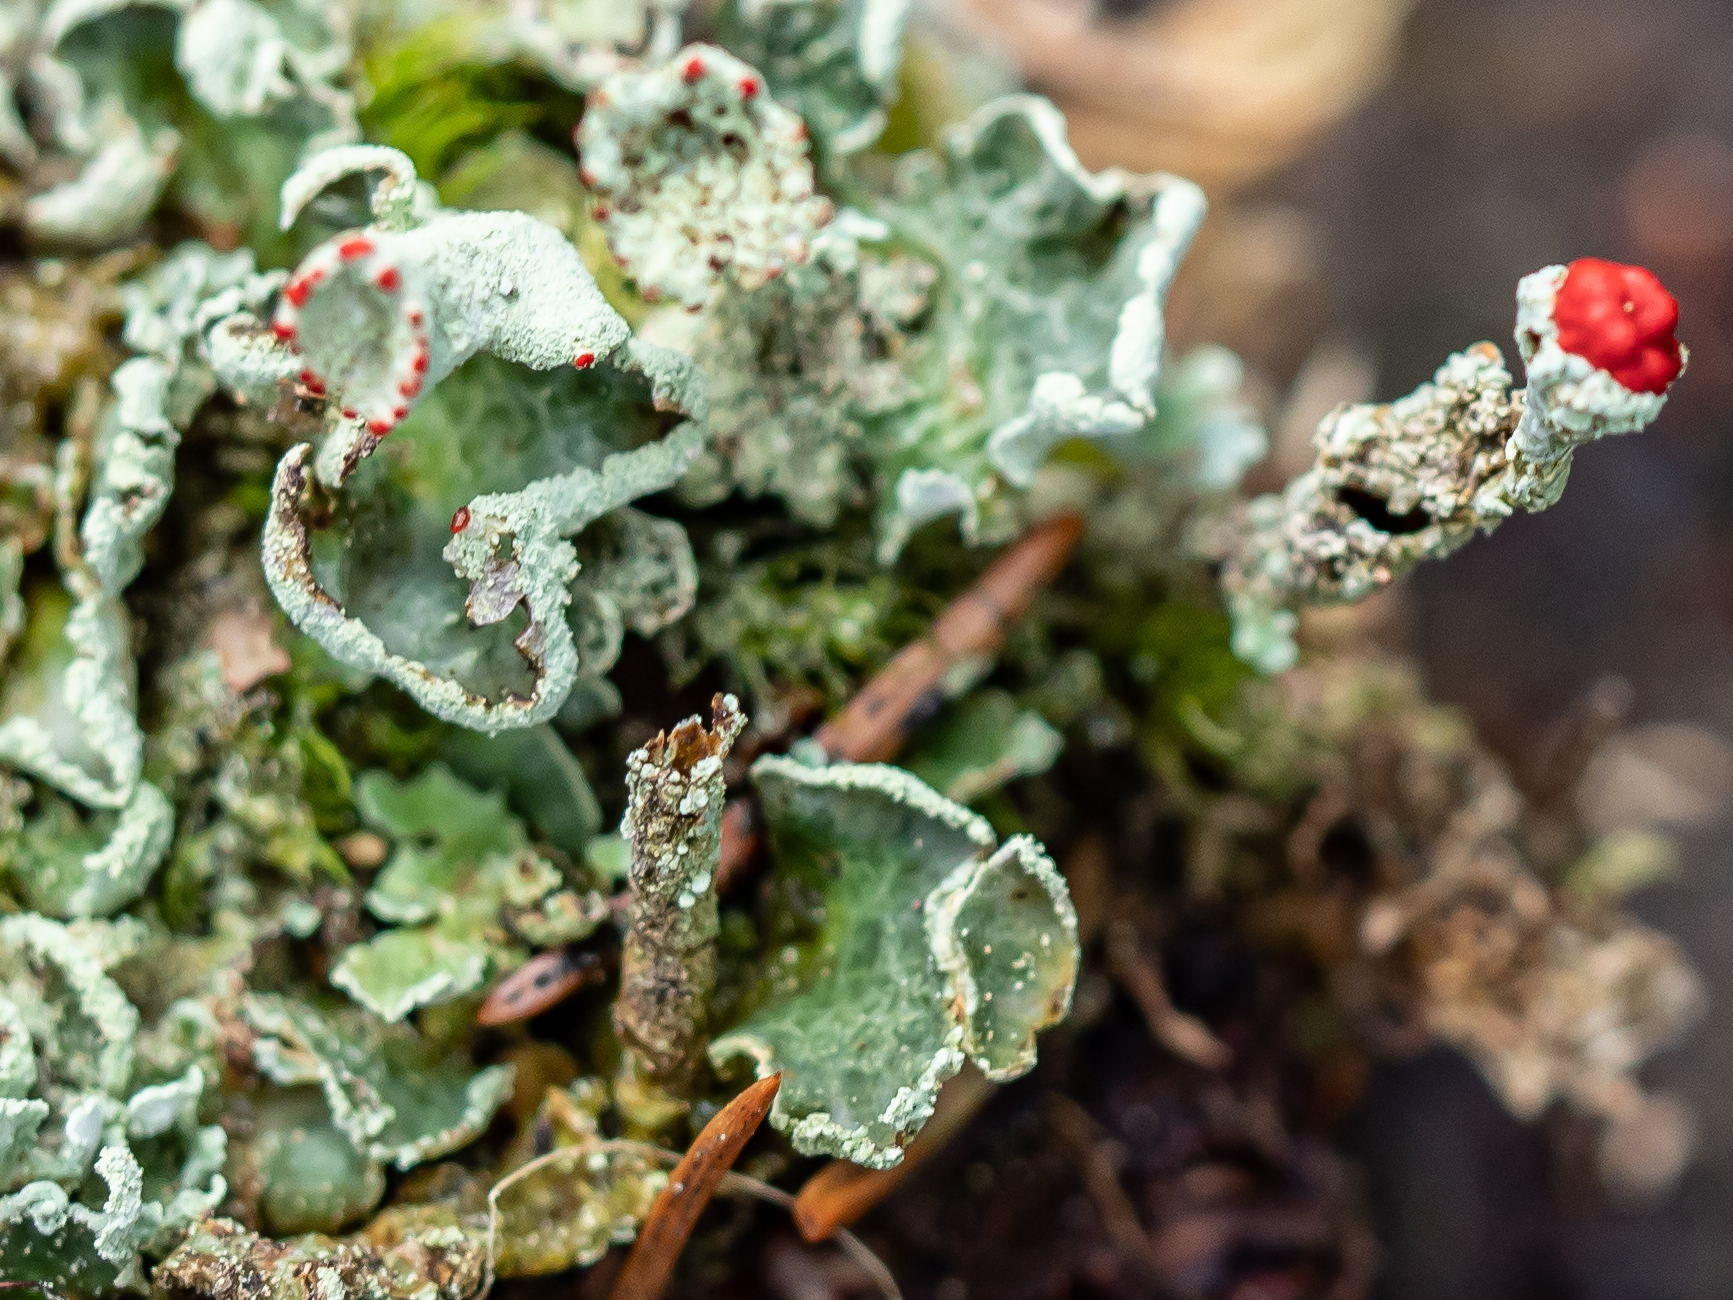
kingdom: Fungi
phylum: Ascomycota
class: Lecanoromycetes
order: Lecanorales
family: Cladoniaceae
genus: Cladonia
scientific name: Cladonia digitata
